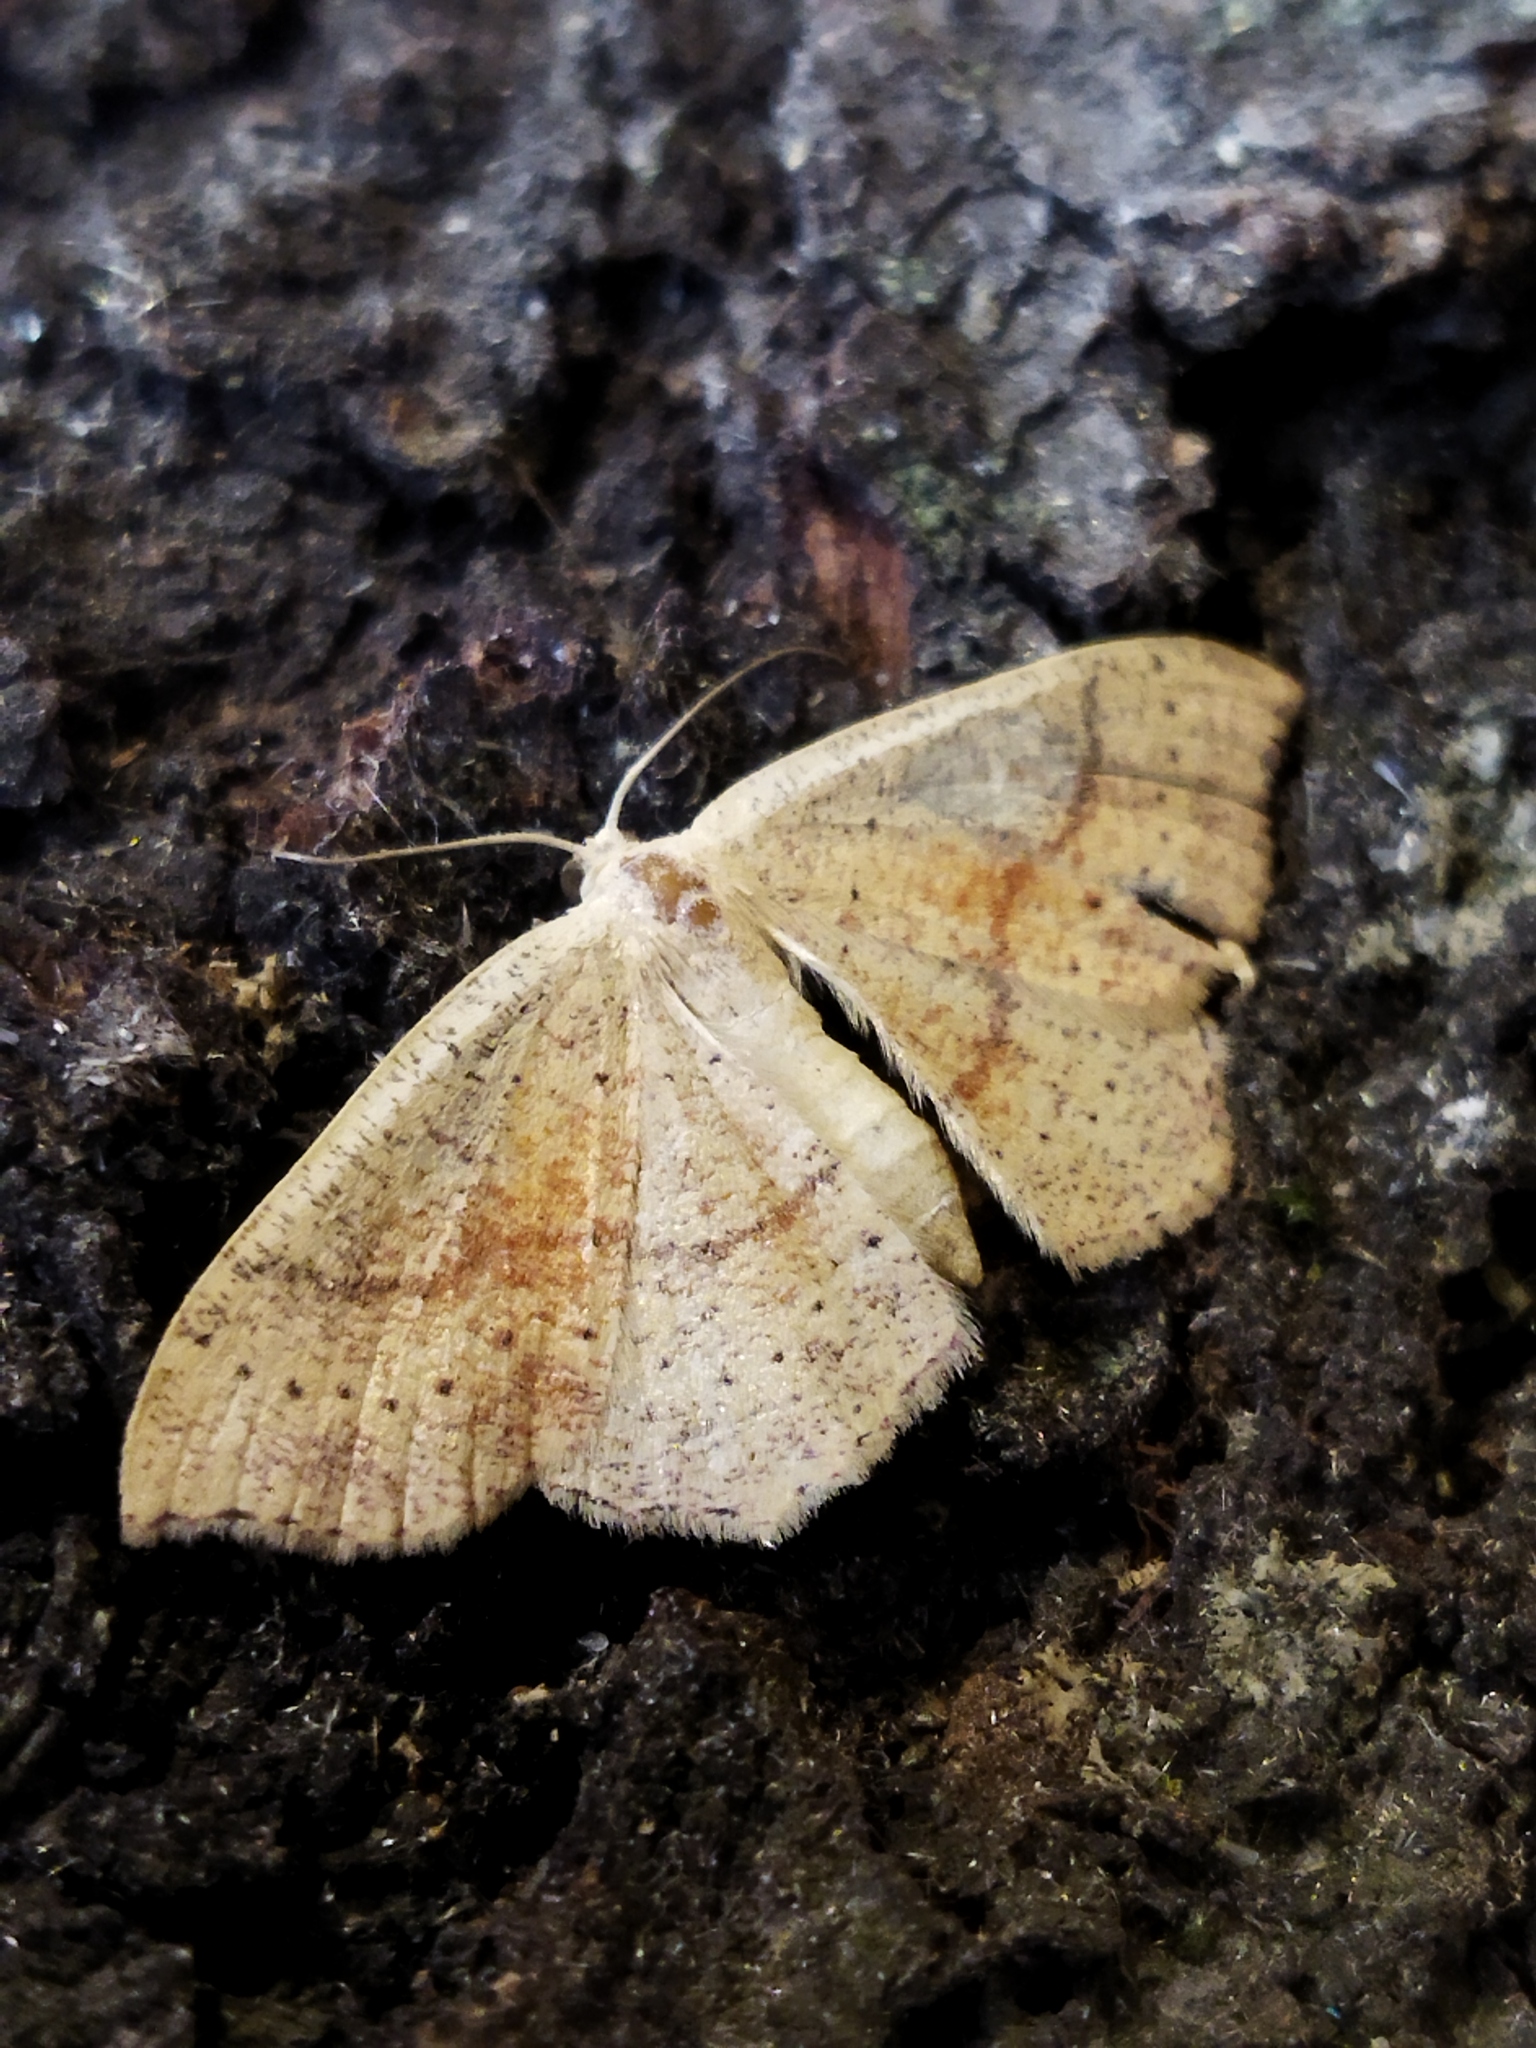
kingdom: Animalia
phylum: Arthropoda
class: Insecta
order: Lepidoptera
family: Geometridae
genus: Cyclophora
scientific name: Cyclophora punctaria
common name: Maiden's blush
